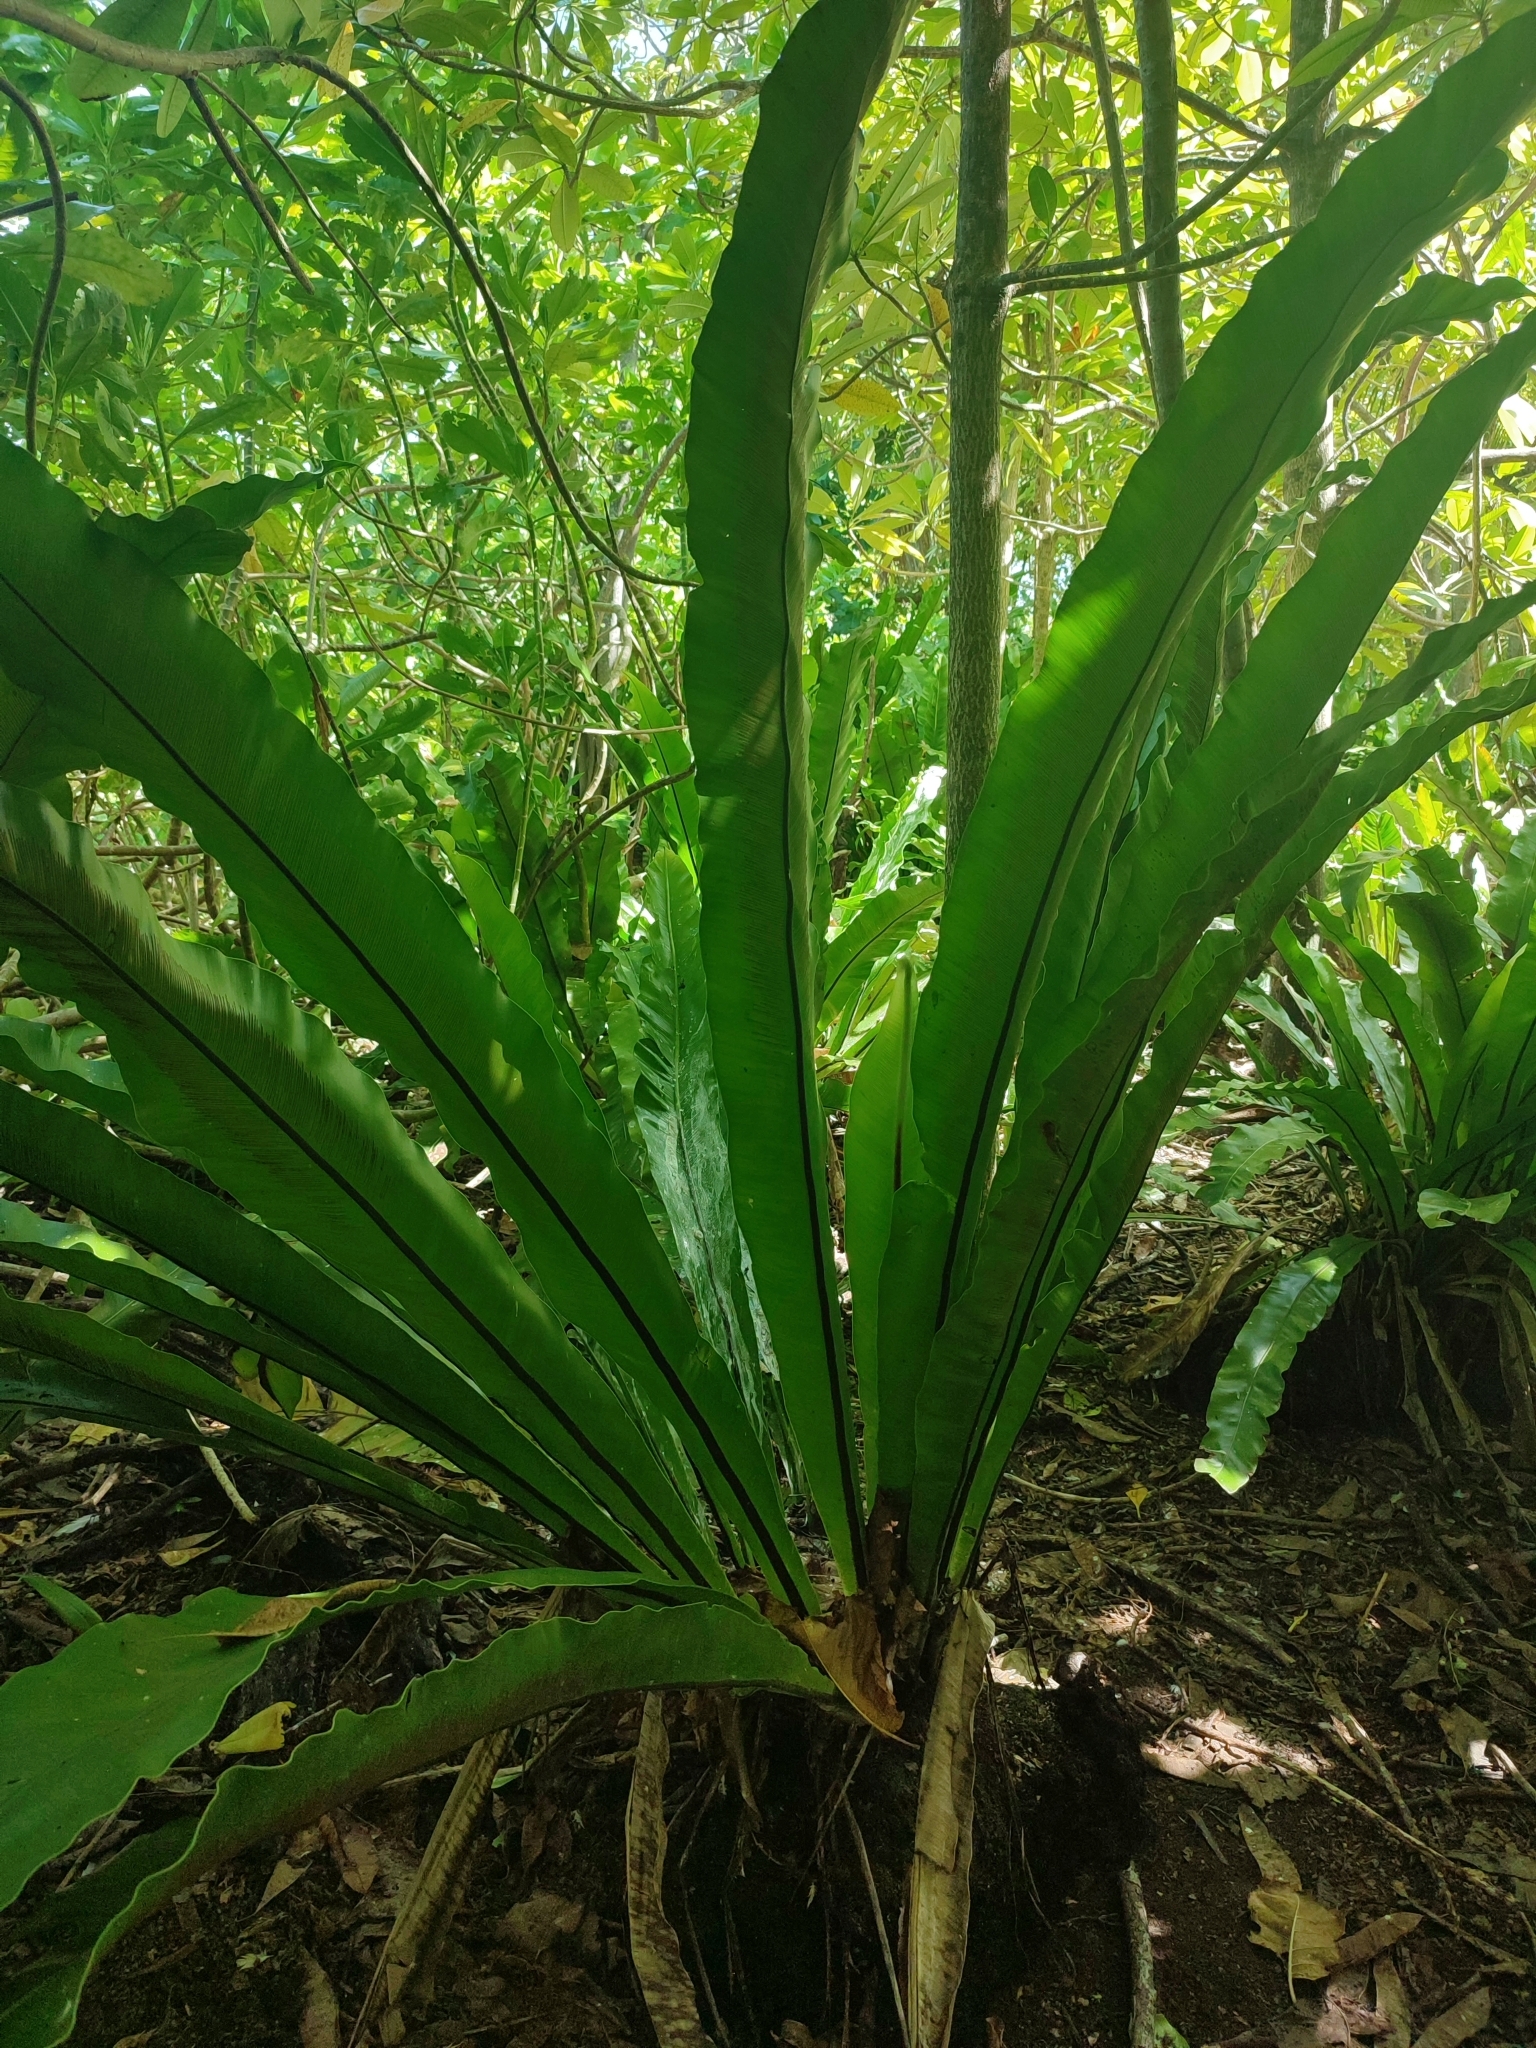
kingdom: Plantae
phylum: Tracheophyta
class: Polypodiopsida
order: Polypodiales
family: Aspleniaceae
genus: Asplenium
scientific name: Asplenium nidus
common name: Bird's-nest fern
